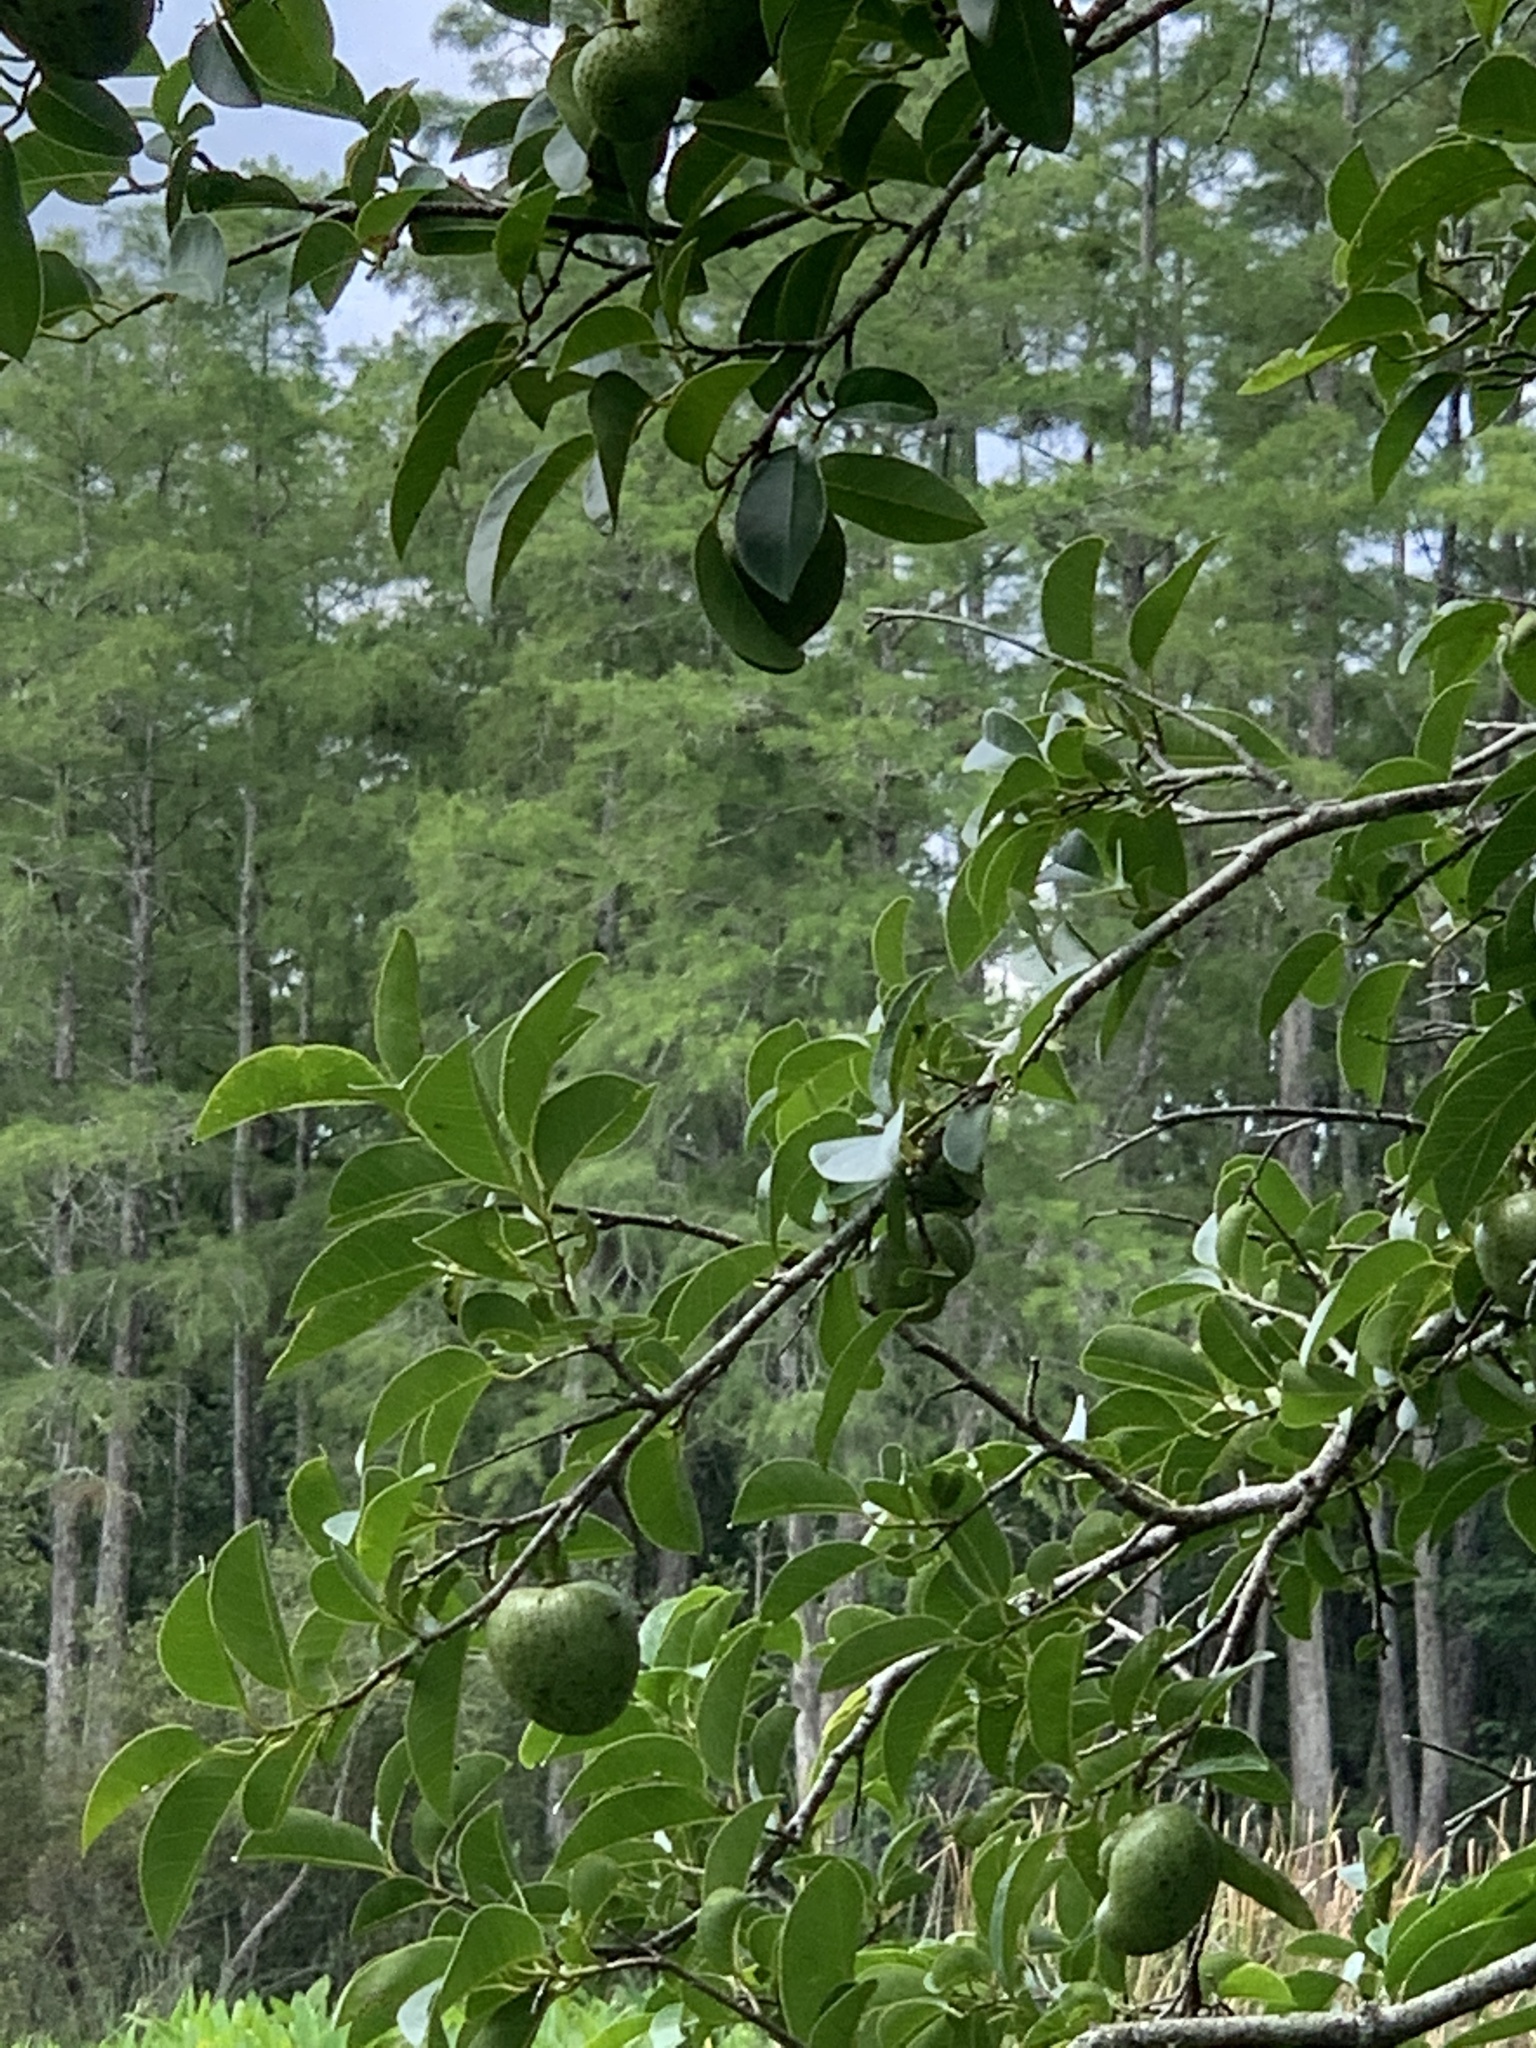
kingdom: Plantae
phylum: Tracheophyta
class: Magnoliopsida
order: Magnoliales
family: Annonaceae
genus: Annona
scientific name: Annona glabra
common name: Monkey apple
